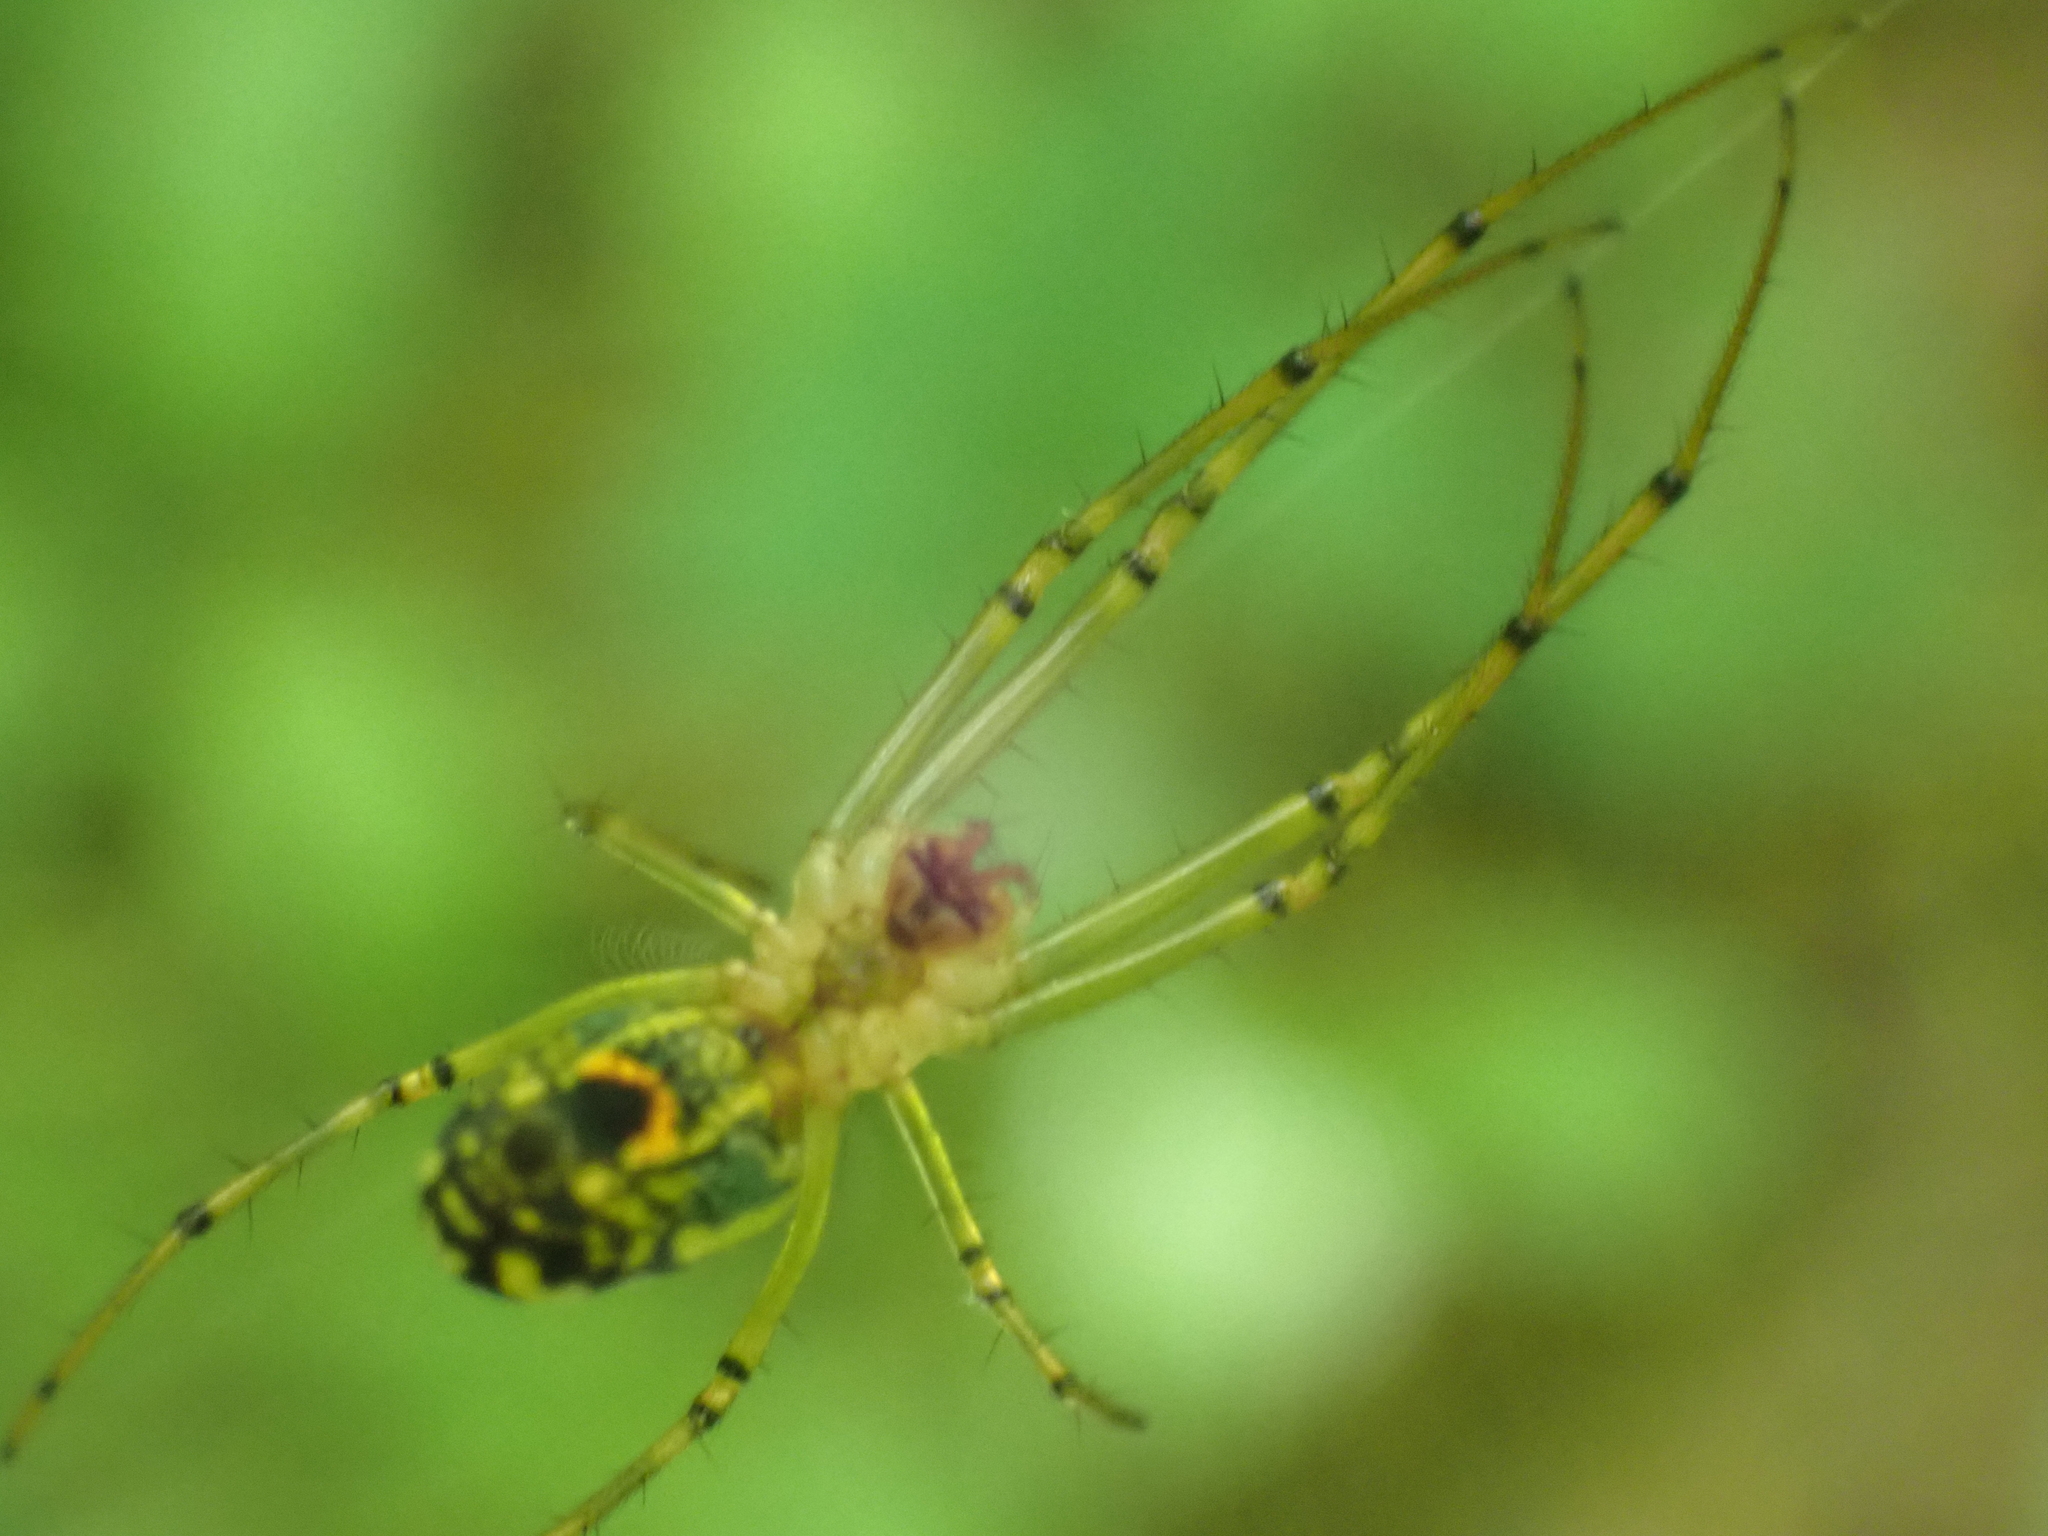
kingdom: Animalia
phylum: Arthropoda
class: Arachnida
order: Araneae
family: Tetragnathidae
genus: Leucauge
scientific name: Leucauge venusta
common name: Longjawed orb weavers
